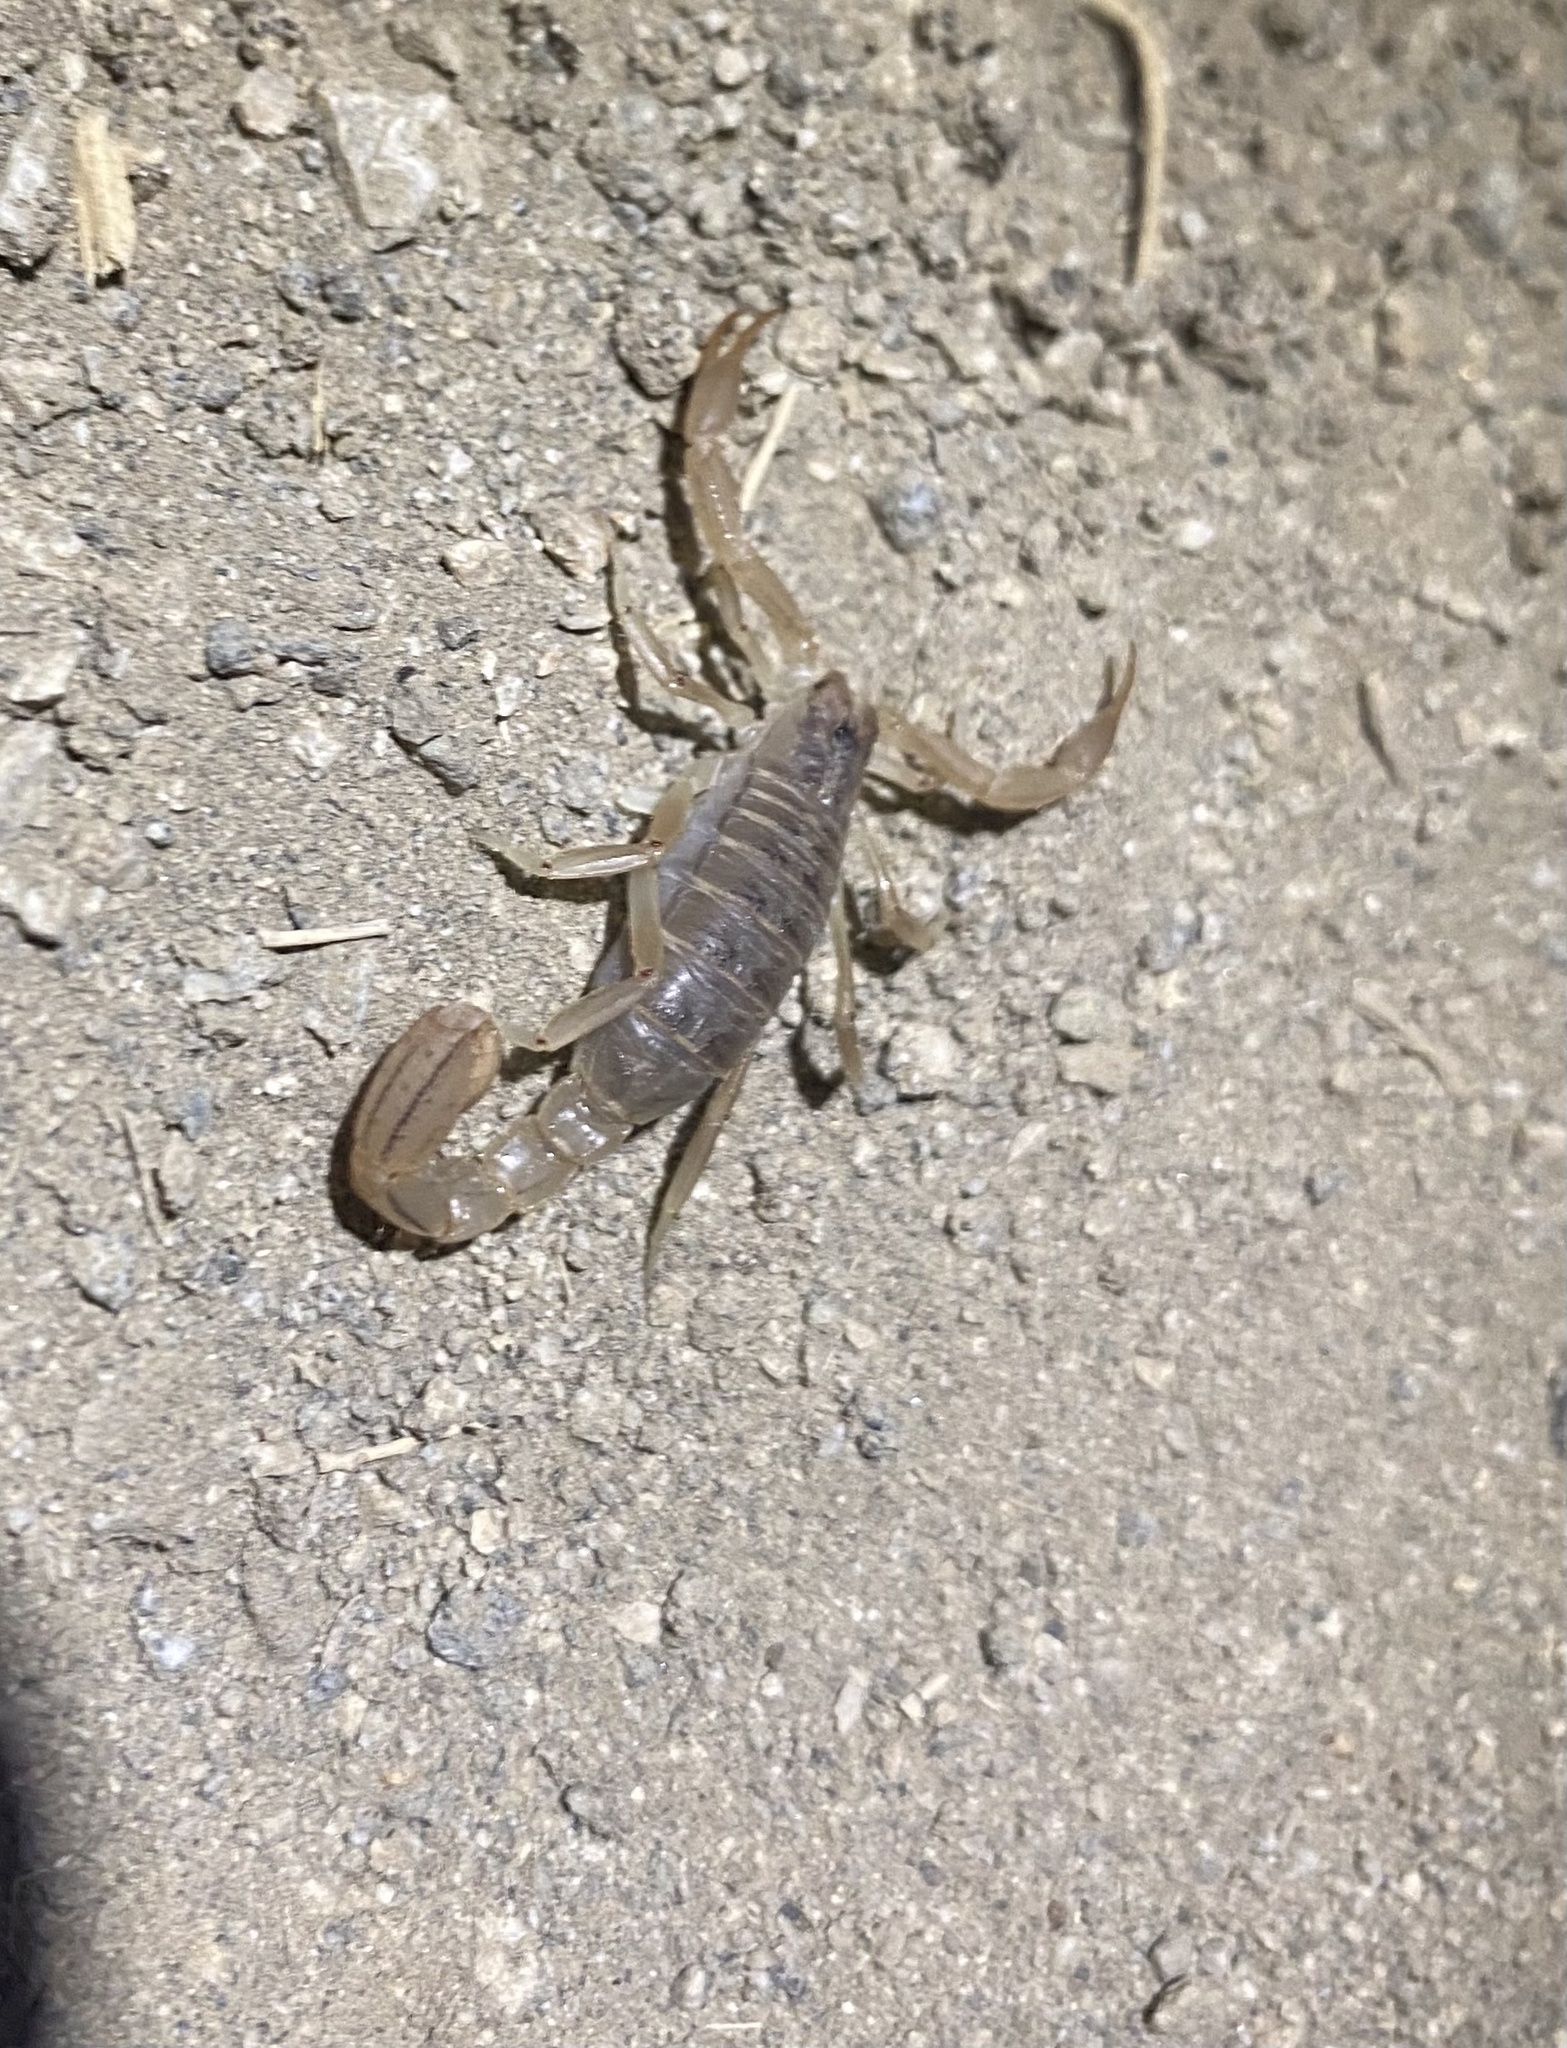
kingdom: Animalia
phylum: Arthropoda
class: Arachnida
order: Scorpiones
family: Vaejovidae
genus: Paravaejovis
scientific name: Paravaejovis spinigerus
